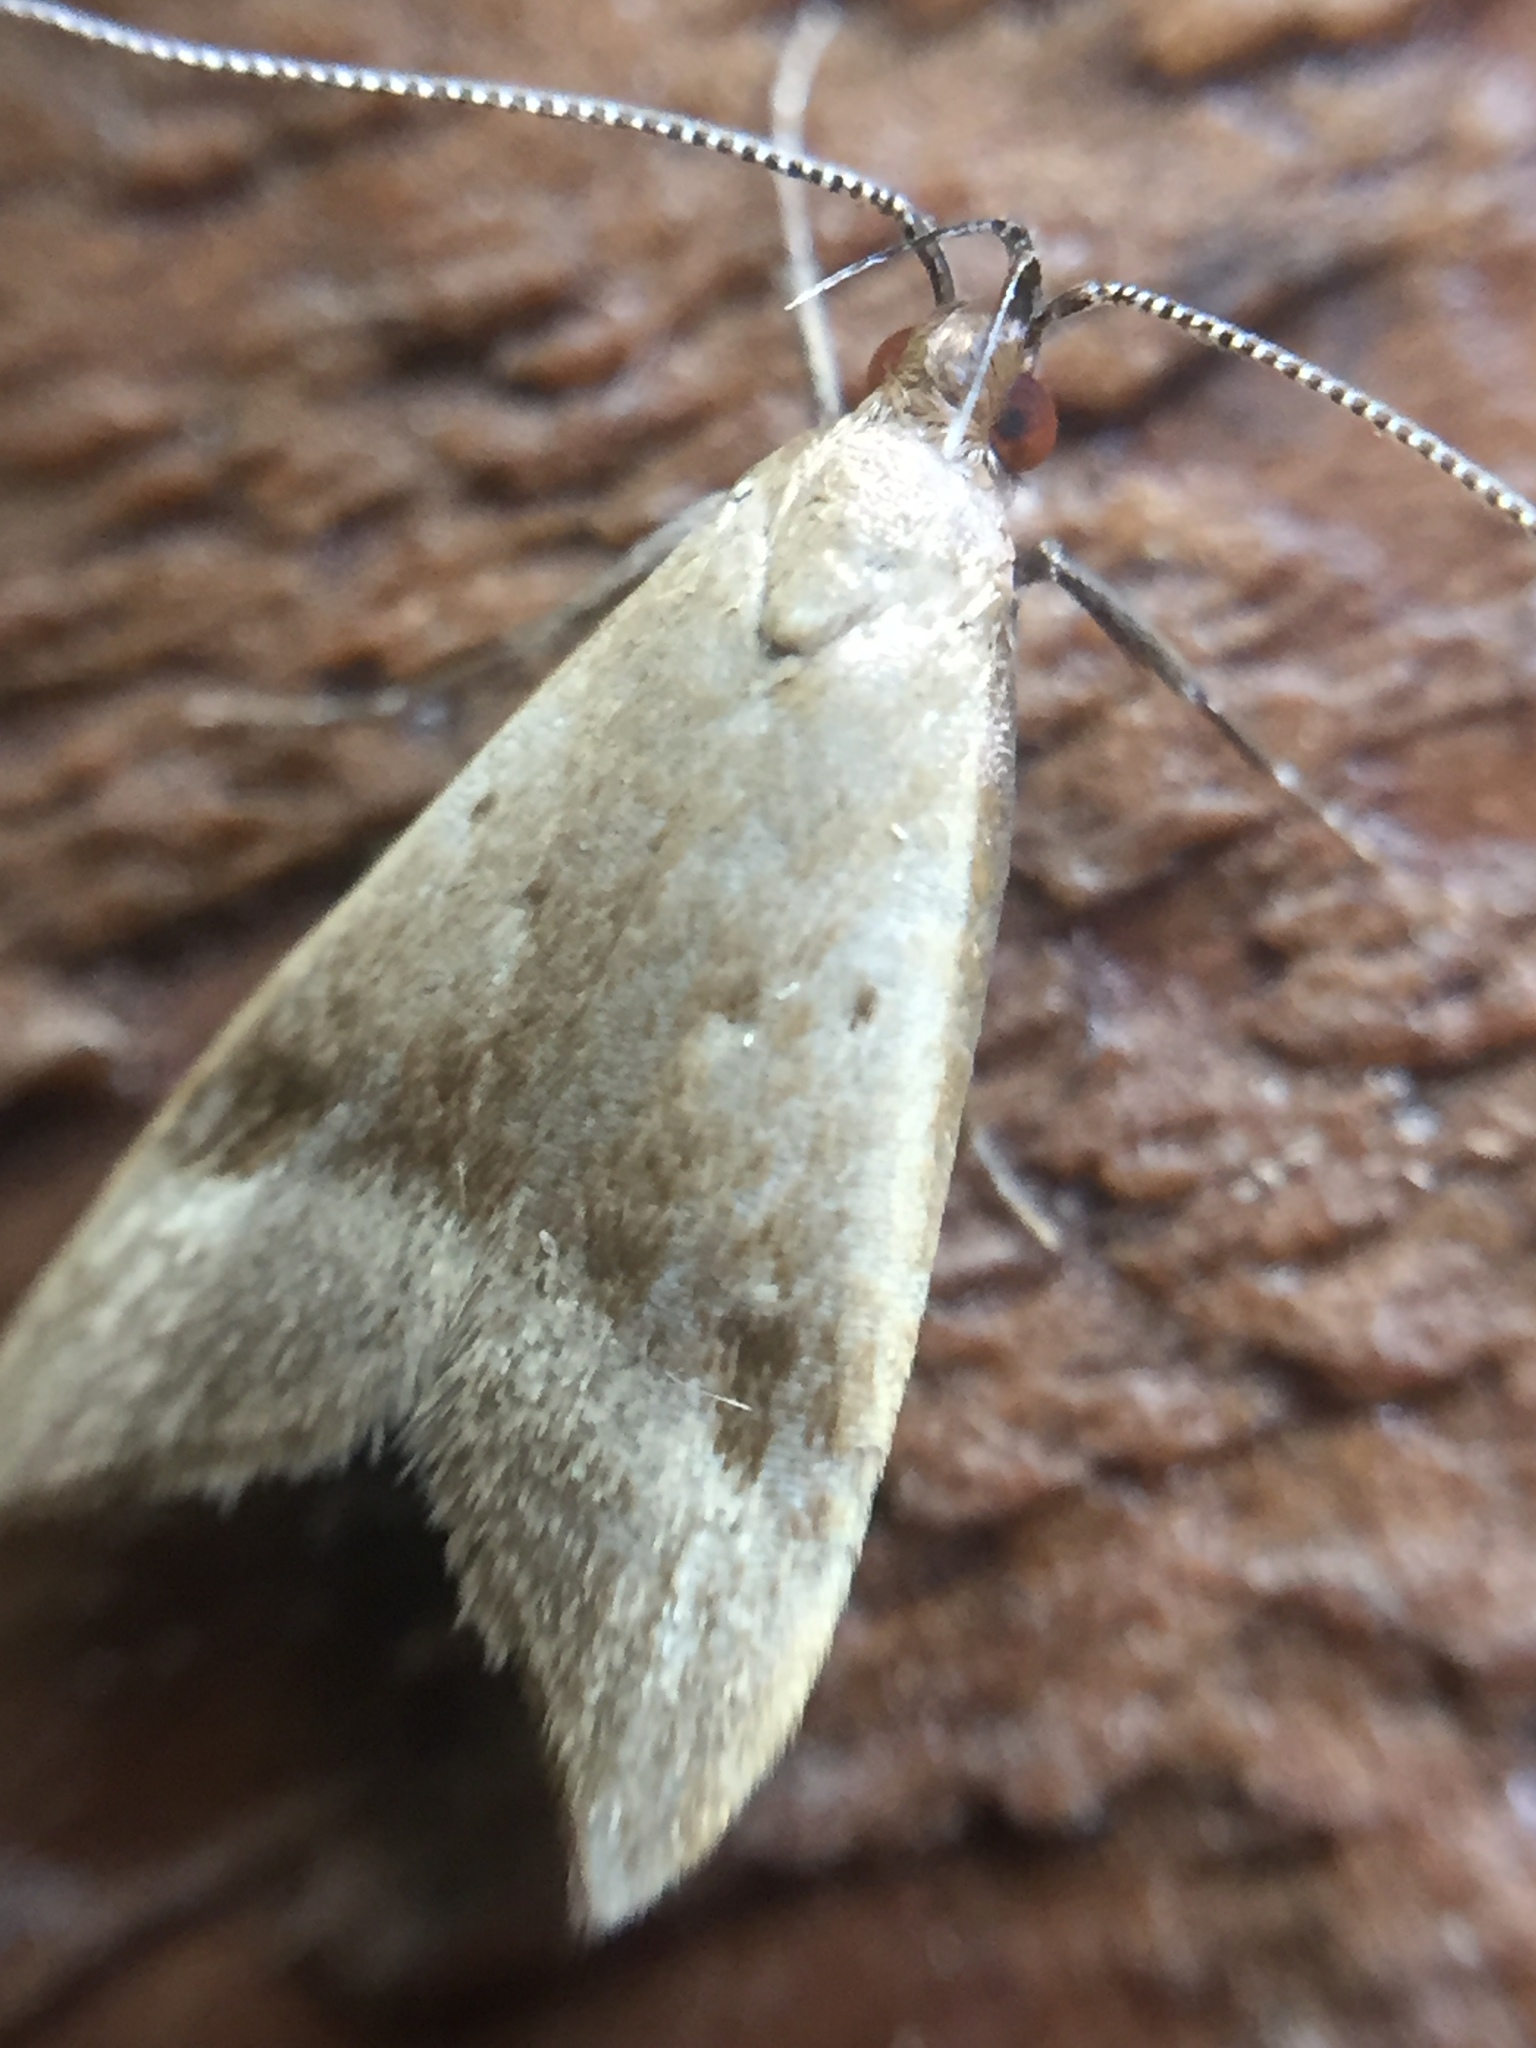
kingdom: Animalia
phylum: Arthropoda
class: Insecta
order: Lepidoptera
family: Oecophoridae
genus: Gymnobathra
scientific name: Gymnobathra hyetodes
